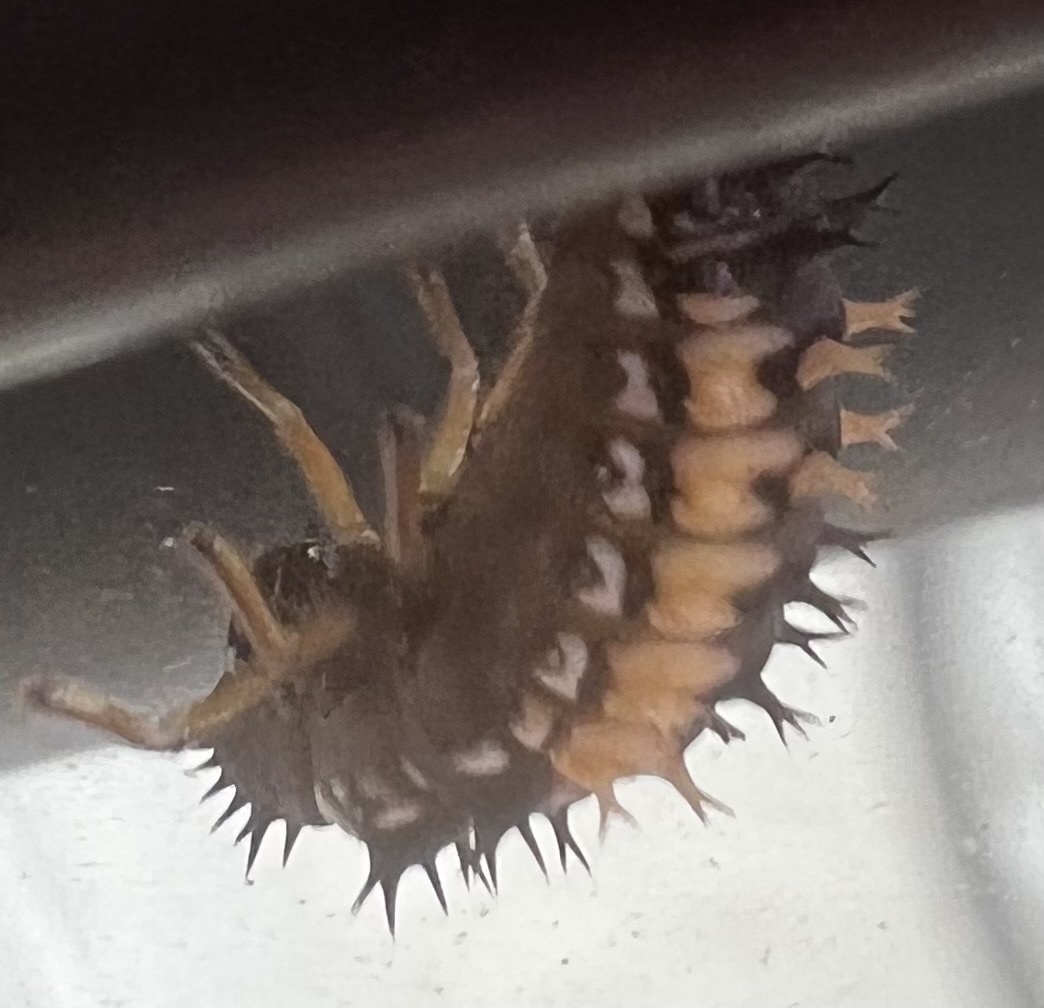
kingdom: Animalia
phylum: Arthropoda
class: Insecta
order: Coleoptera
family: Coccinellidae
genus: Harmonia
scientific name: Harmonia axyridis
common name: Harlequin ladybird
